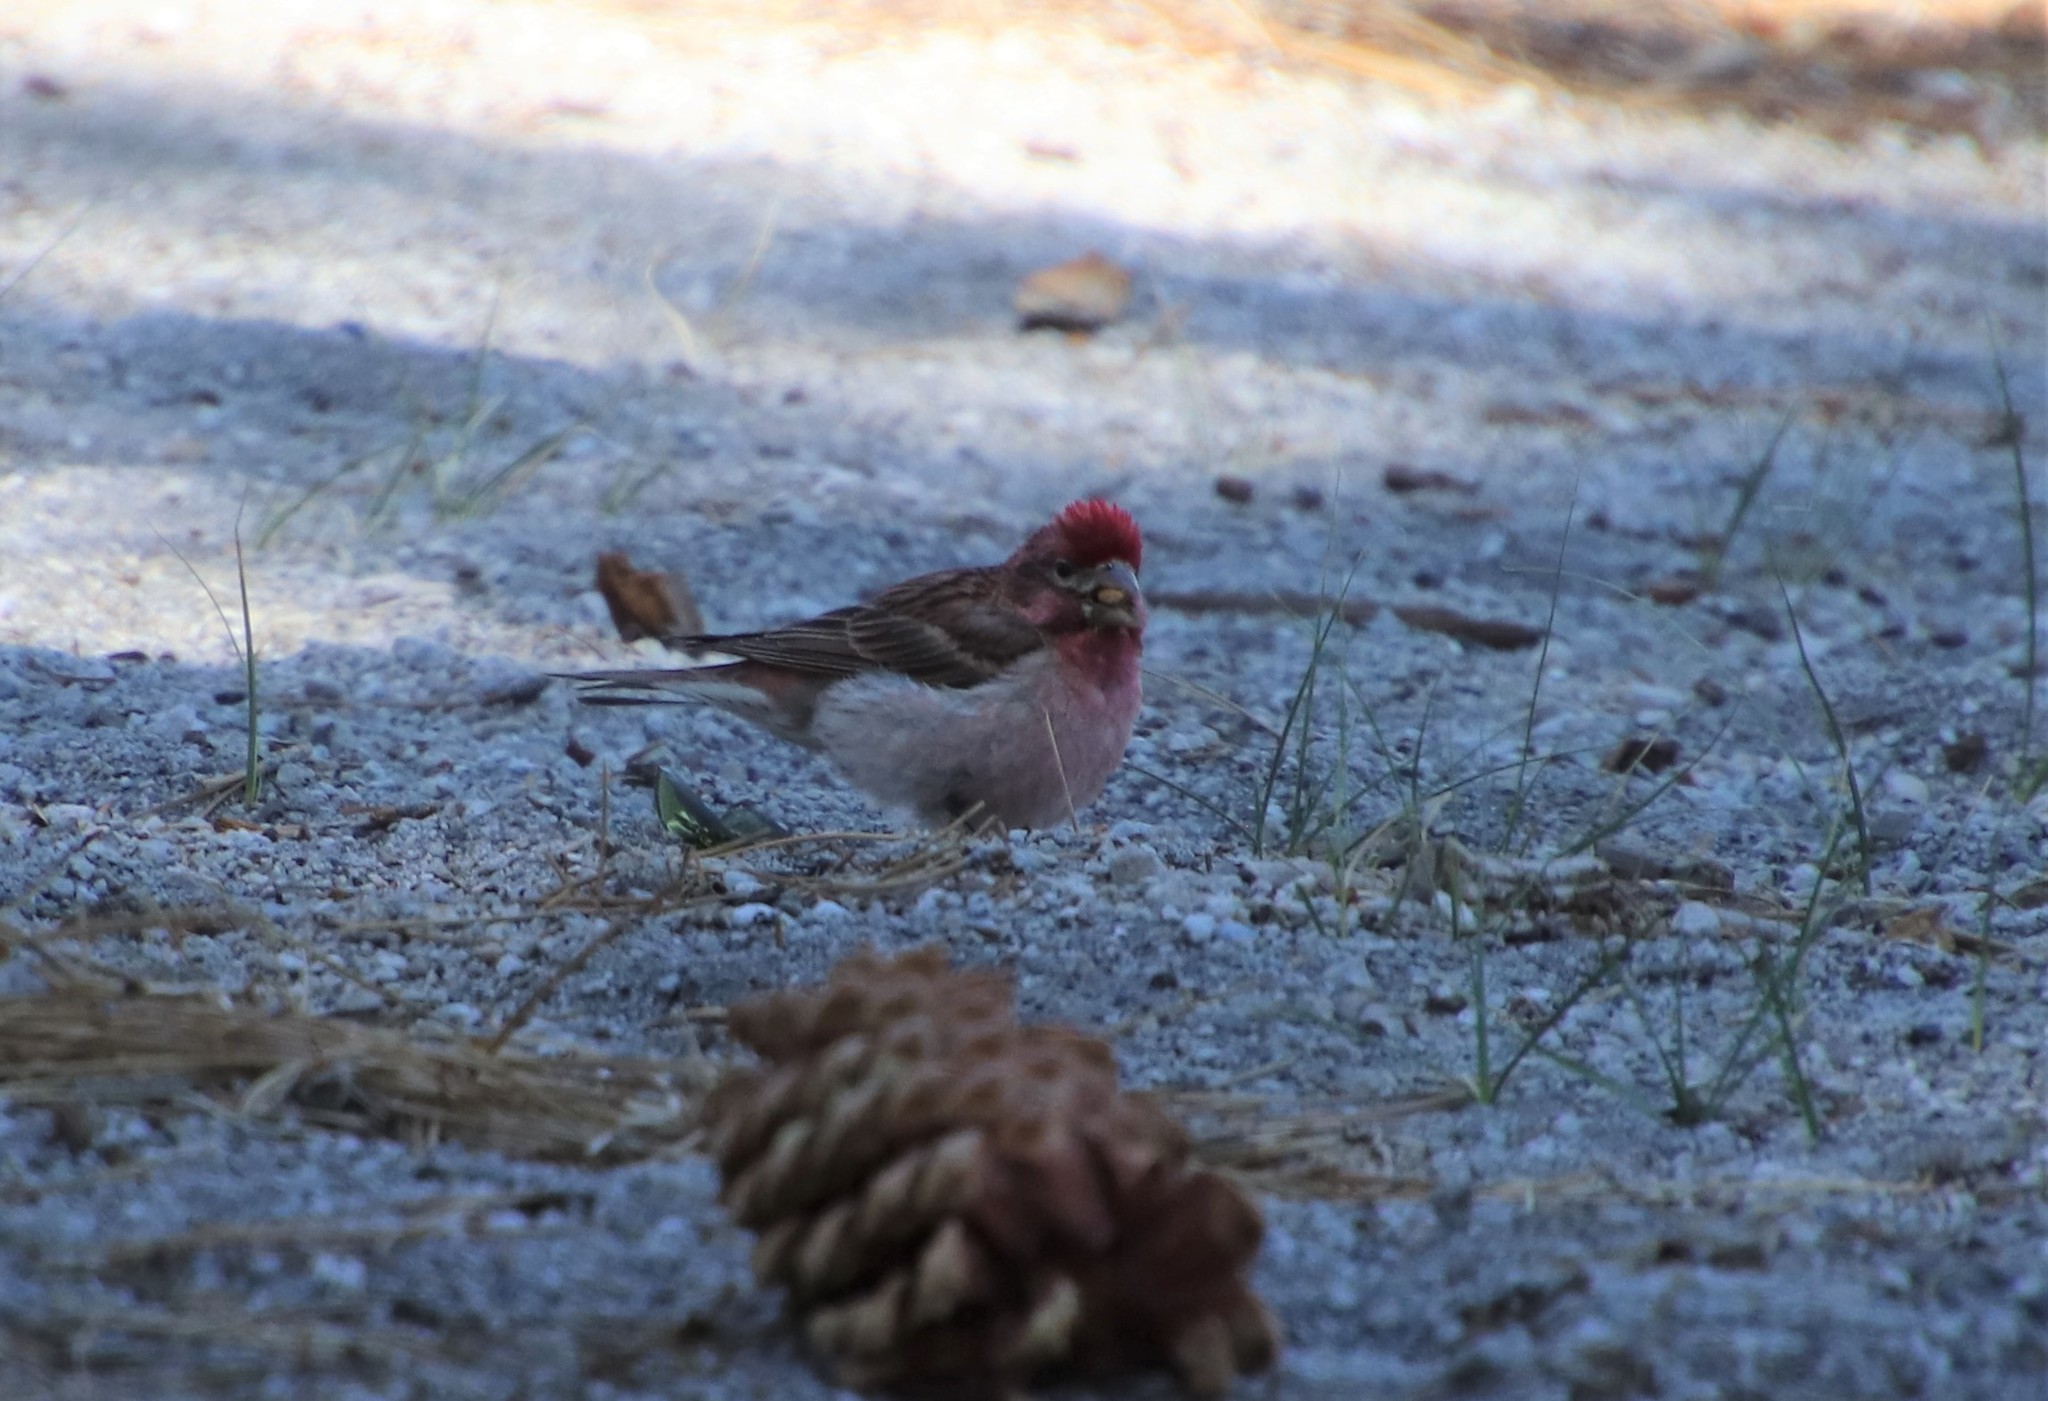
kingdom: Animalia
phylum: Chordata
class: Aves
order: Passeriformes
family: Fringillidae
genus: Haemorhous
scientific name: Haemorhous cassinii
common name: Cassin's finch
